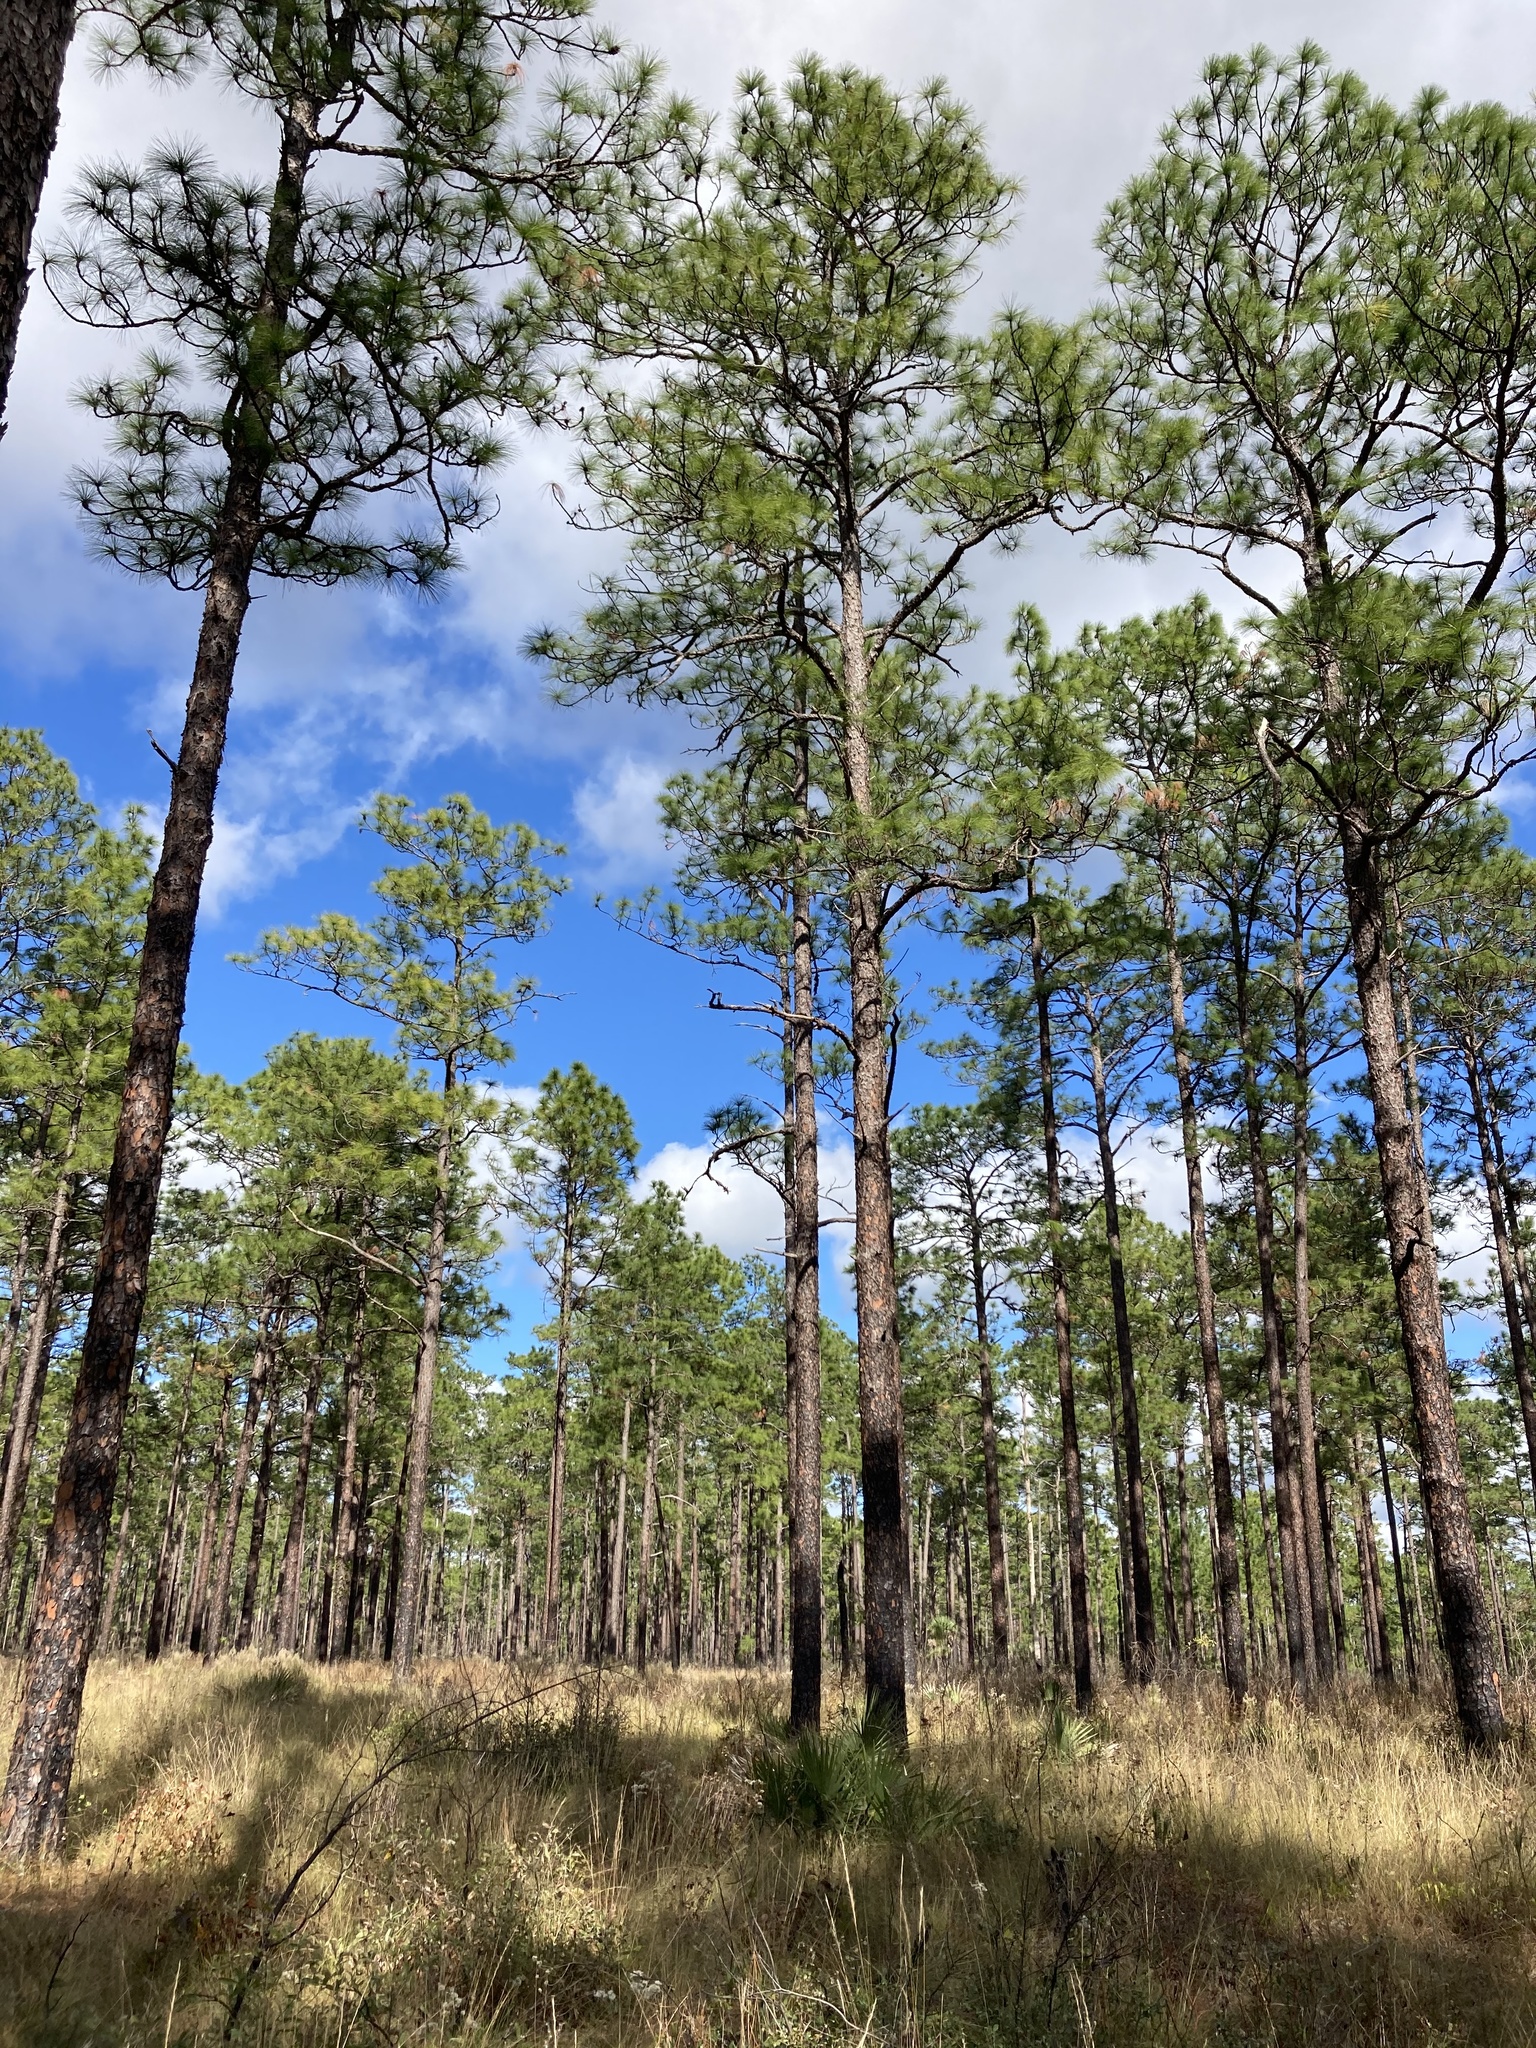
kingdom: Plantae
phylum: Tracheophyta
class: Pinopsida
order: Pinales
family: Pinaceae
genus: Pinus
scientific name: Pinus palustris
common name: Longleaf pine
